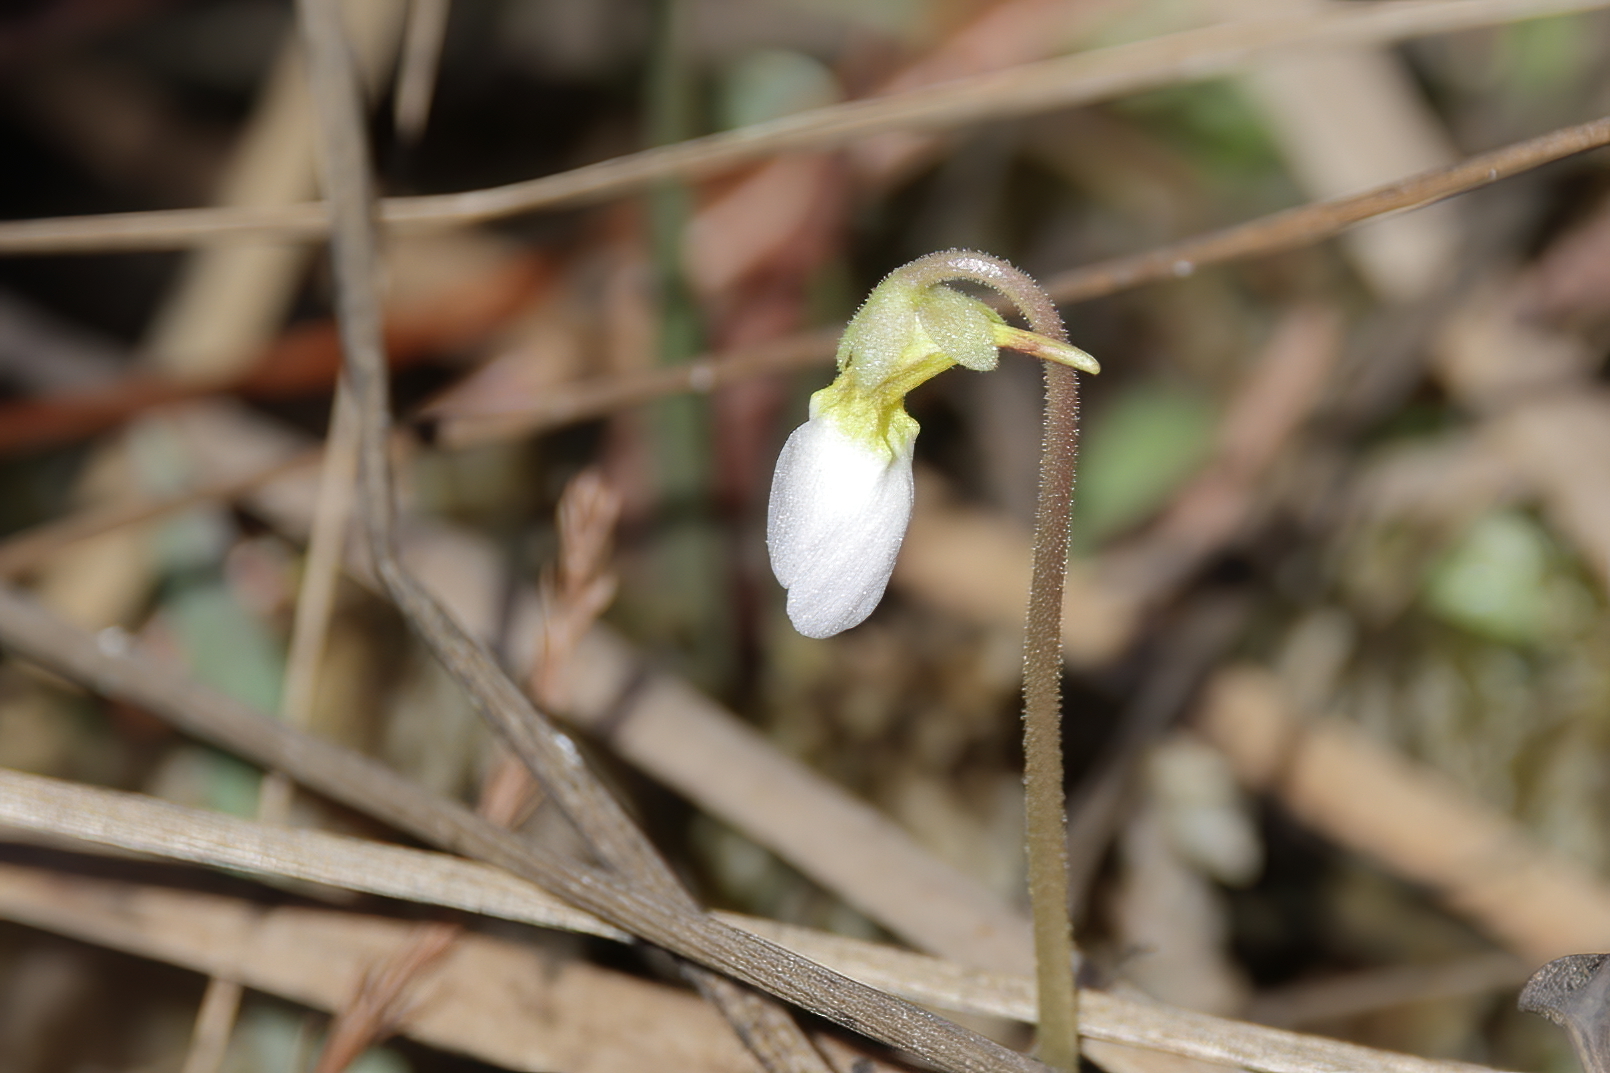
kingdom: Plantae
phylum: Tracheophyta
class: Magnoliopsida
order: Lamiales
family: Lentibulariaceae
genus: Pinguicula
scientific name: Pinguicula primuliflora
